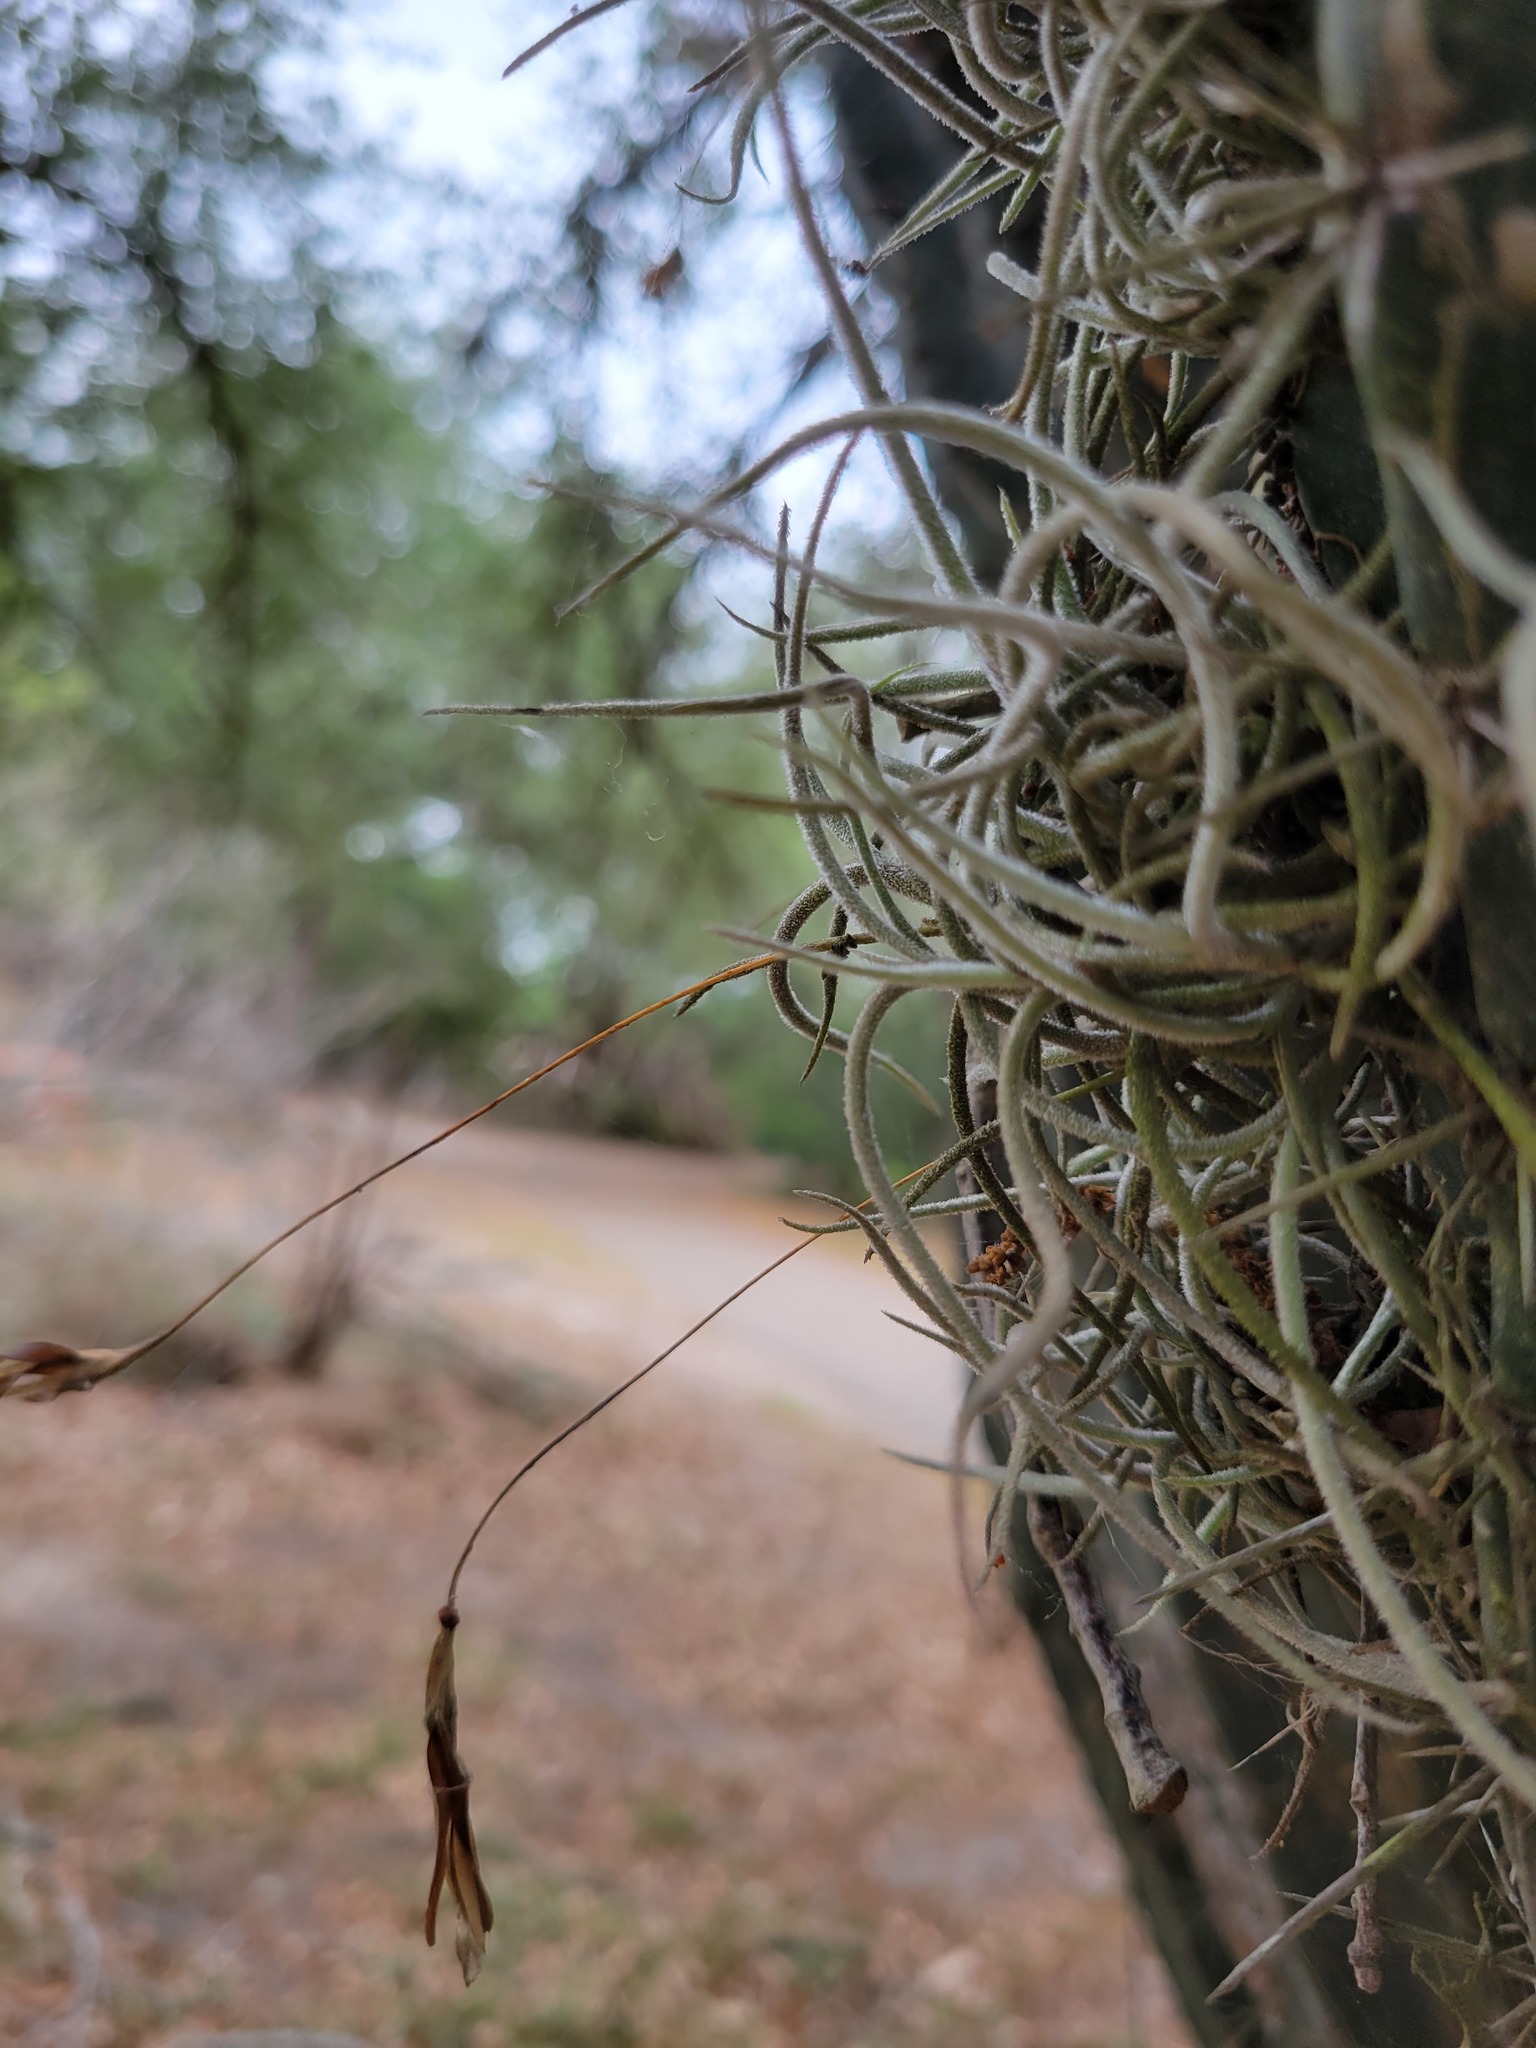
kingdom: Plantae
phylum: Tracheophyta
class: Liliopsida
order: Poales
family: Bromeliaceae
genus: Tillandsia
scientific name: Tillandsia recurvata
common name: Small ballmoss
